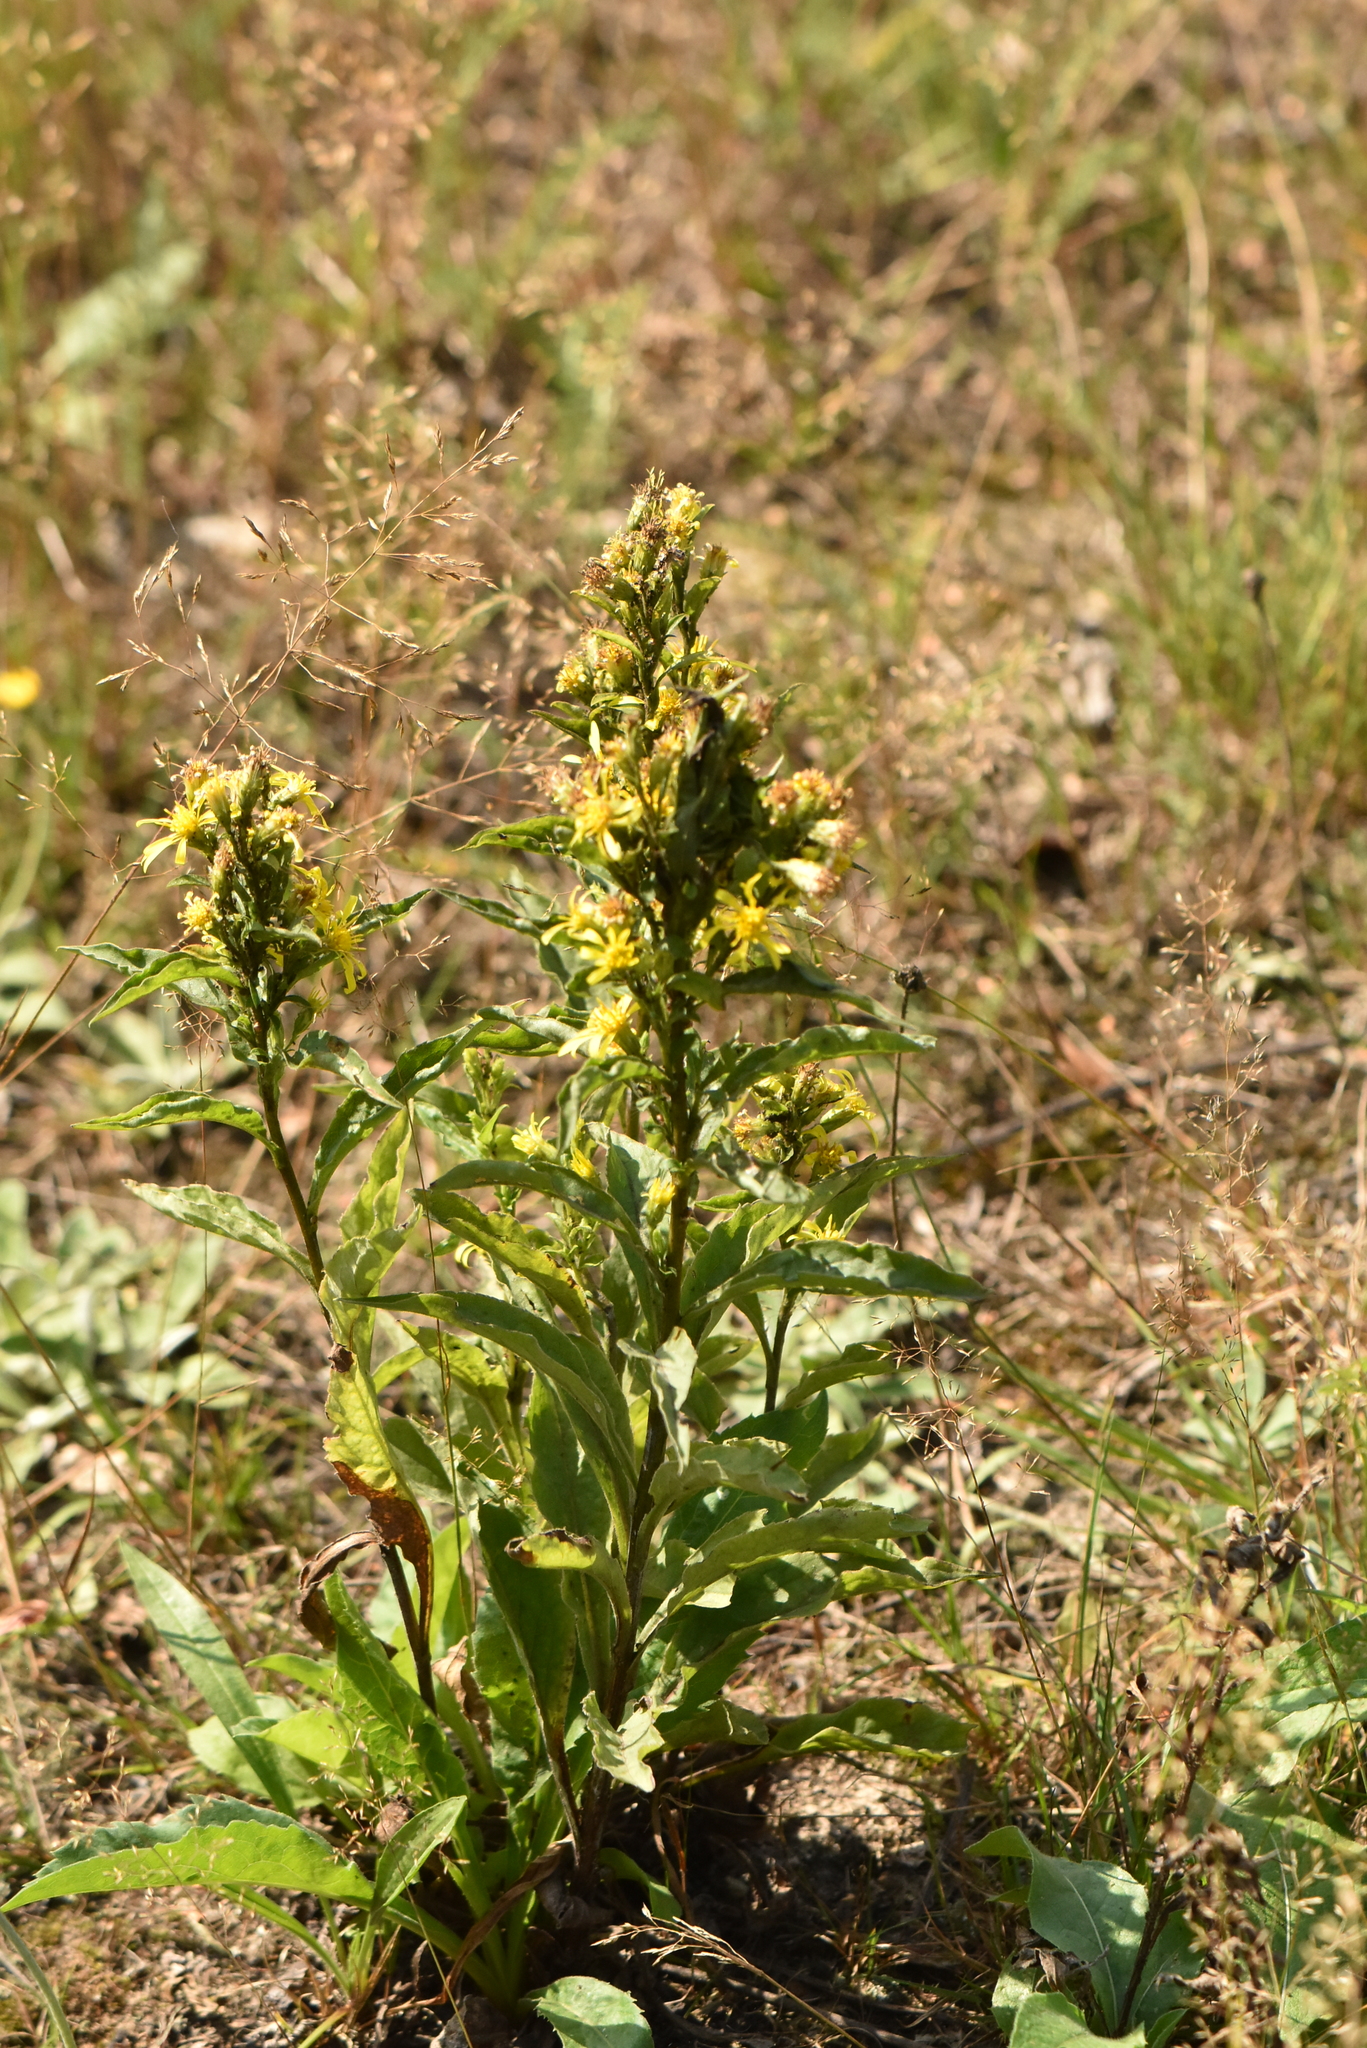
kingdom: Plantae
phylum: Tracheophyta
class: Magnoliopsida
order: Asterales
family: Asteraceae
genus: Solidago
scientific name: Solidago virgaurea
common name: Goldenrod
